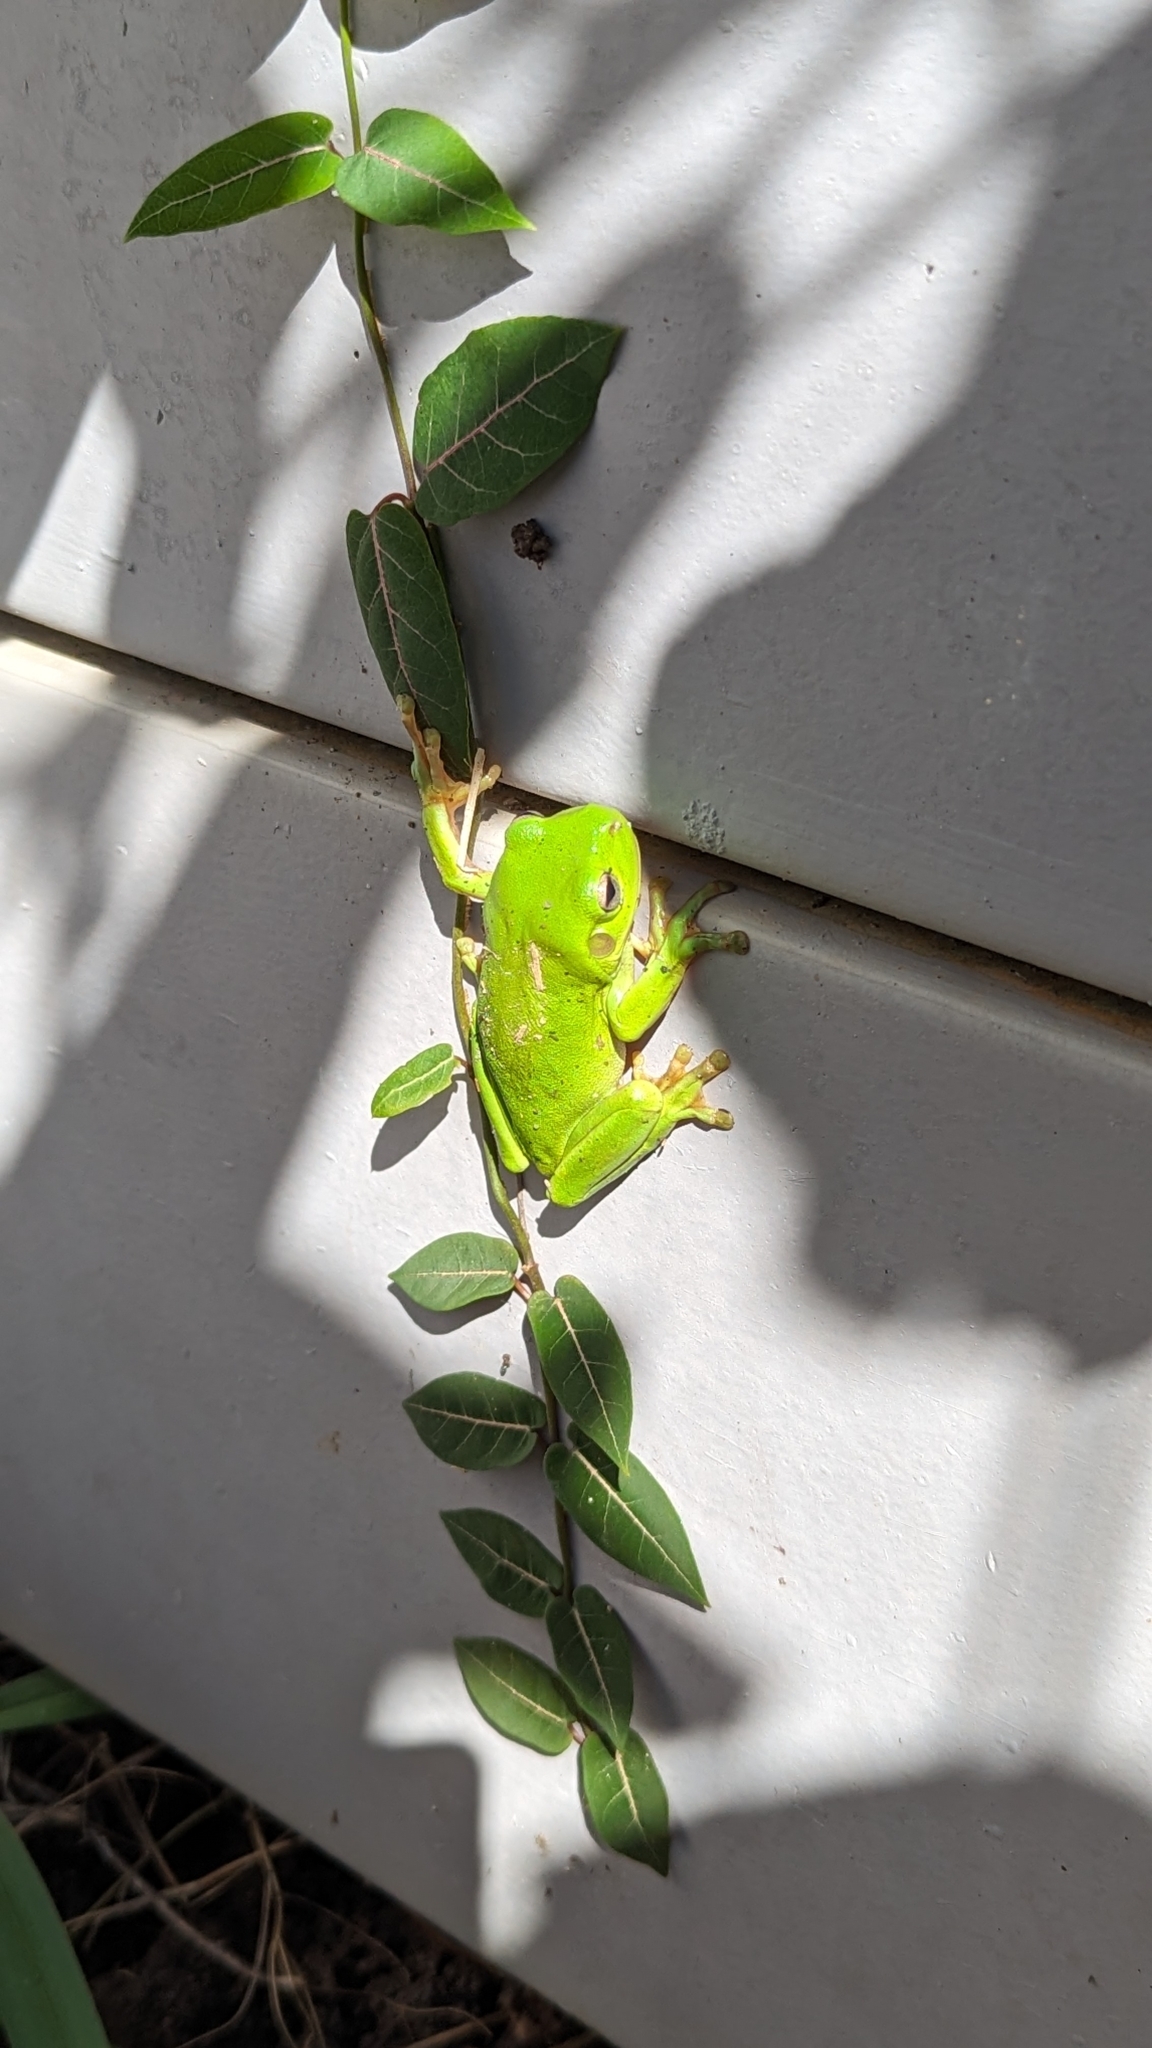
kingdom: Animalia
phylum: Chordata
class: Amphibia
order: Anura
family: Pelodryadidae
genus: Ranoidea
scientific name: Ranoidea caerulea
